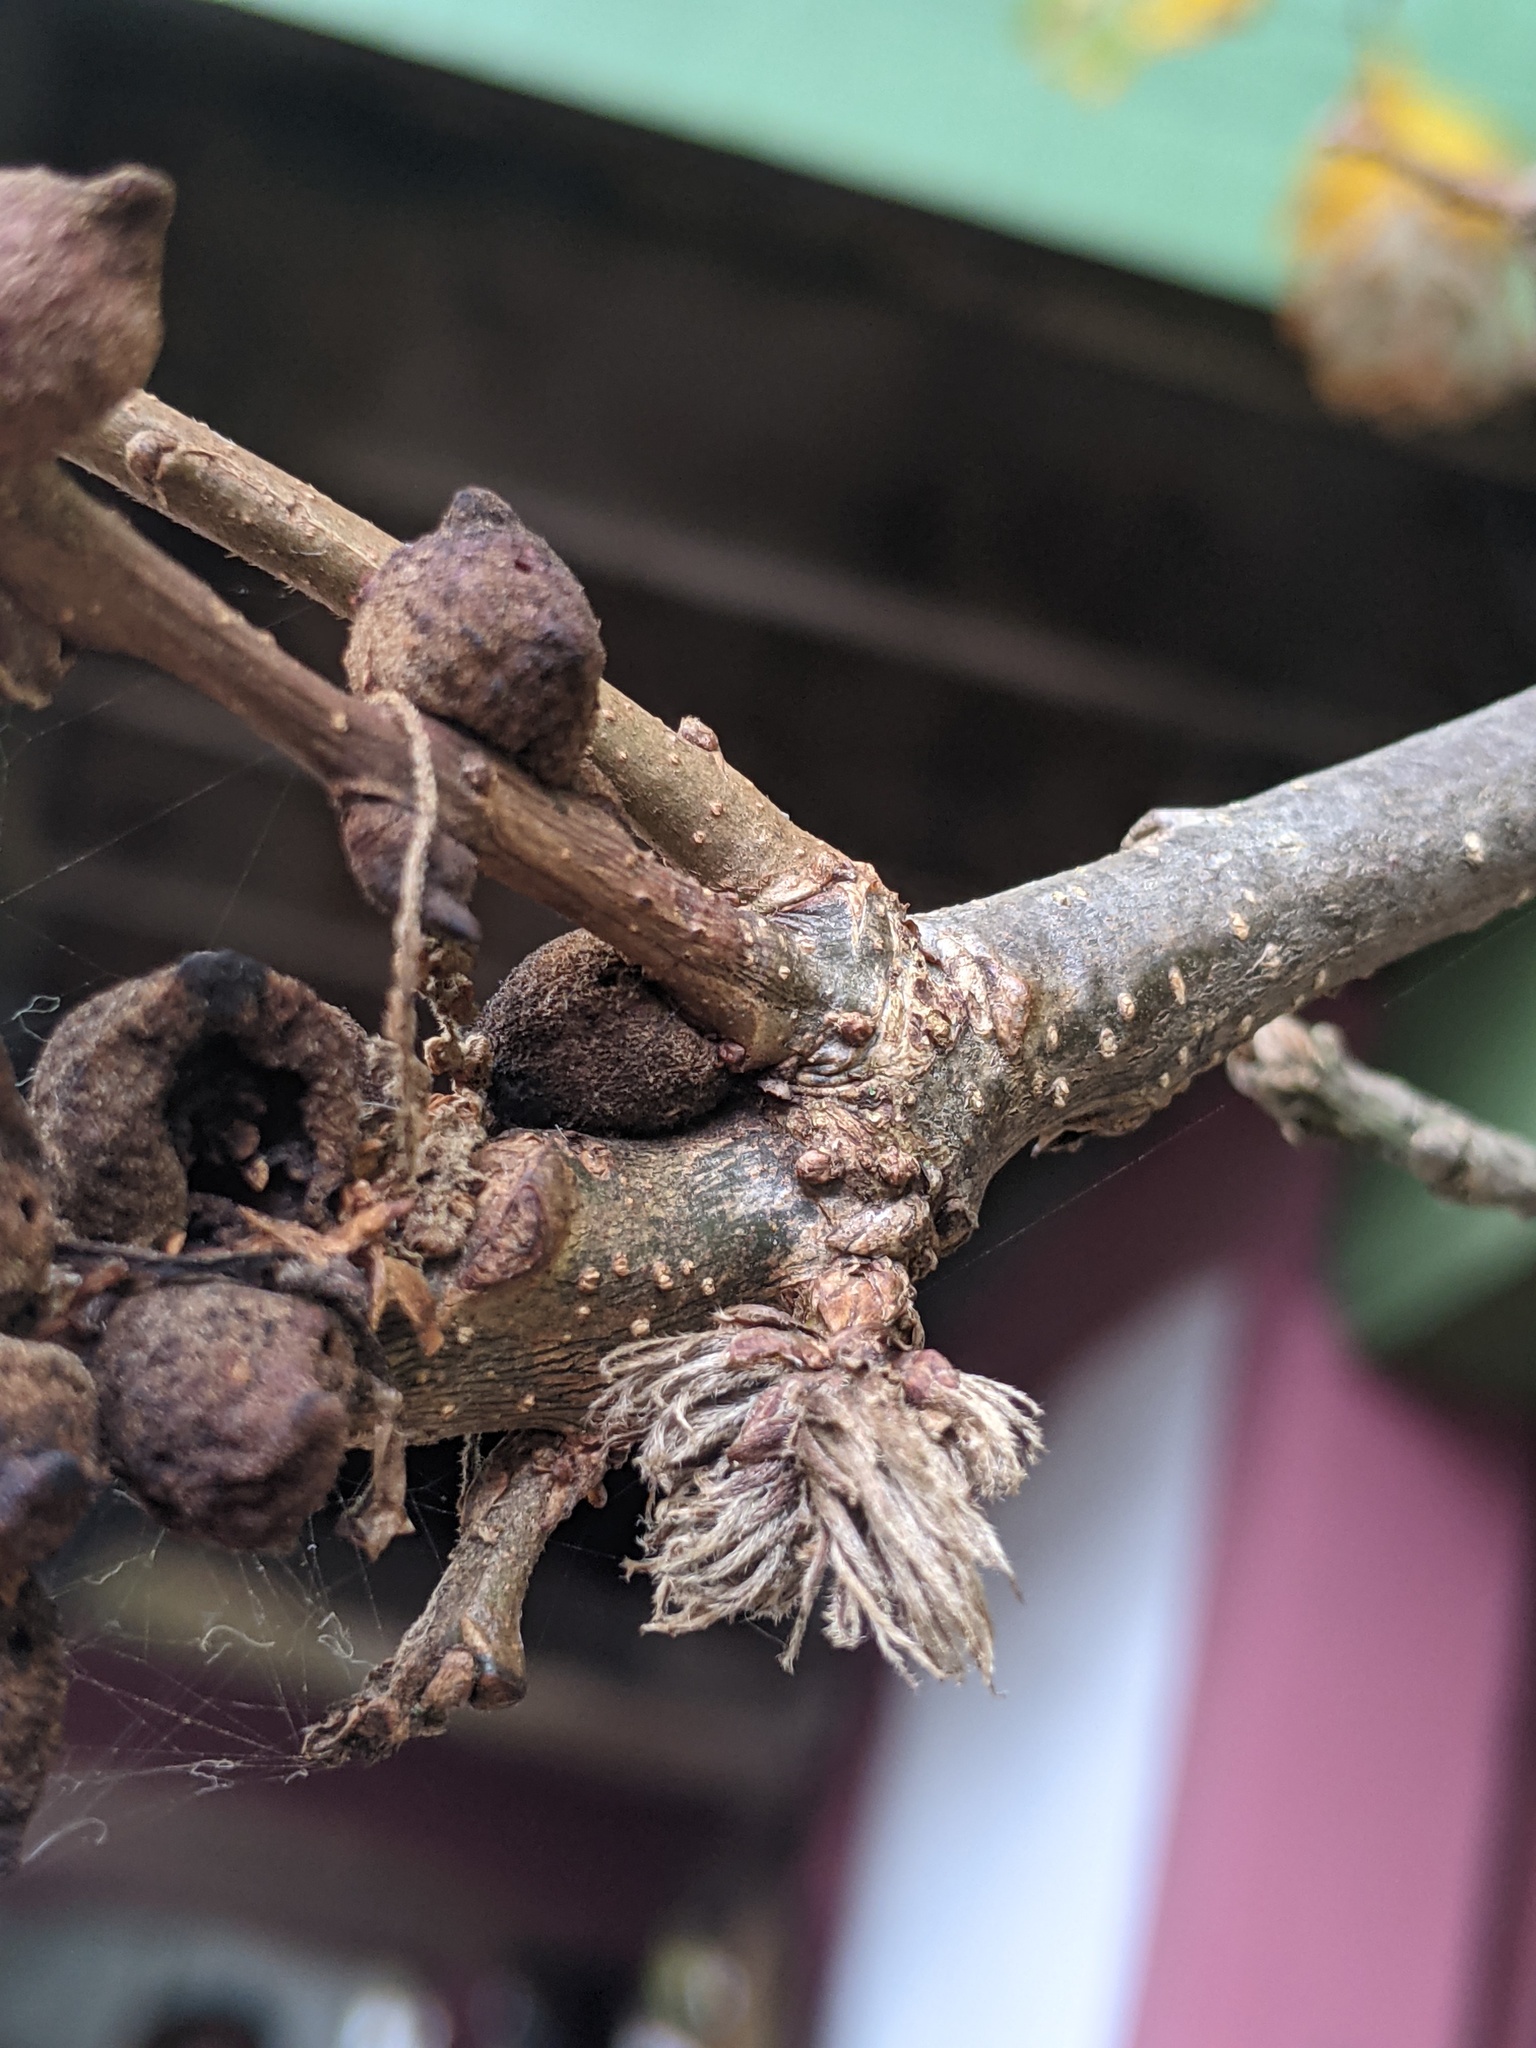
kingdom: Animalia
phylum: Arthropoda
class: Insecta
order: Hymenoptera
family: Cynipidae
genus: Andricus
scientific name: Andricus
